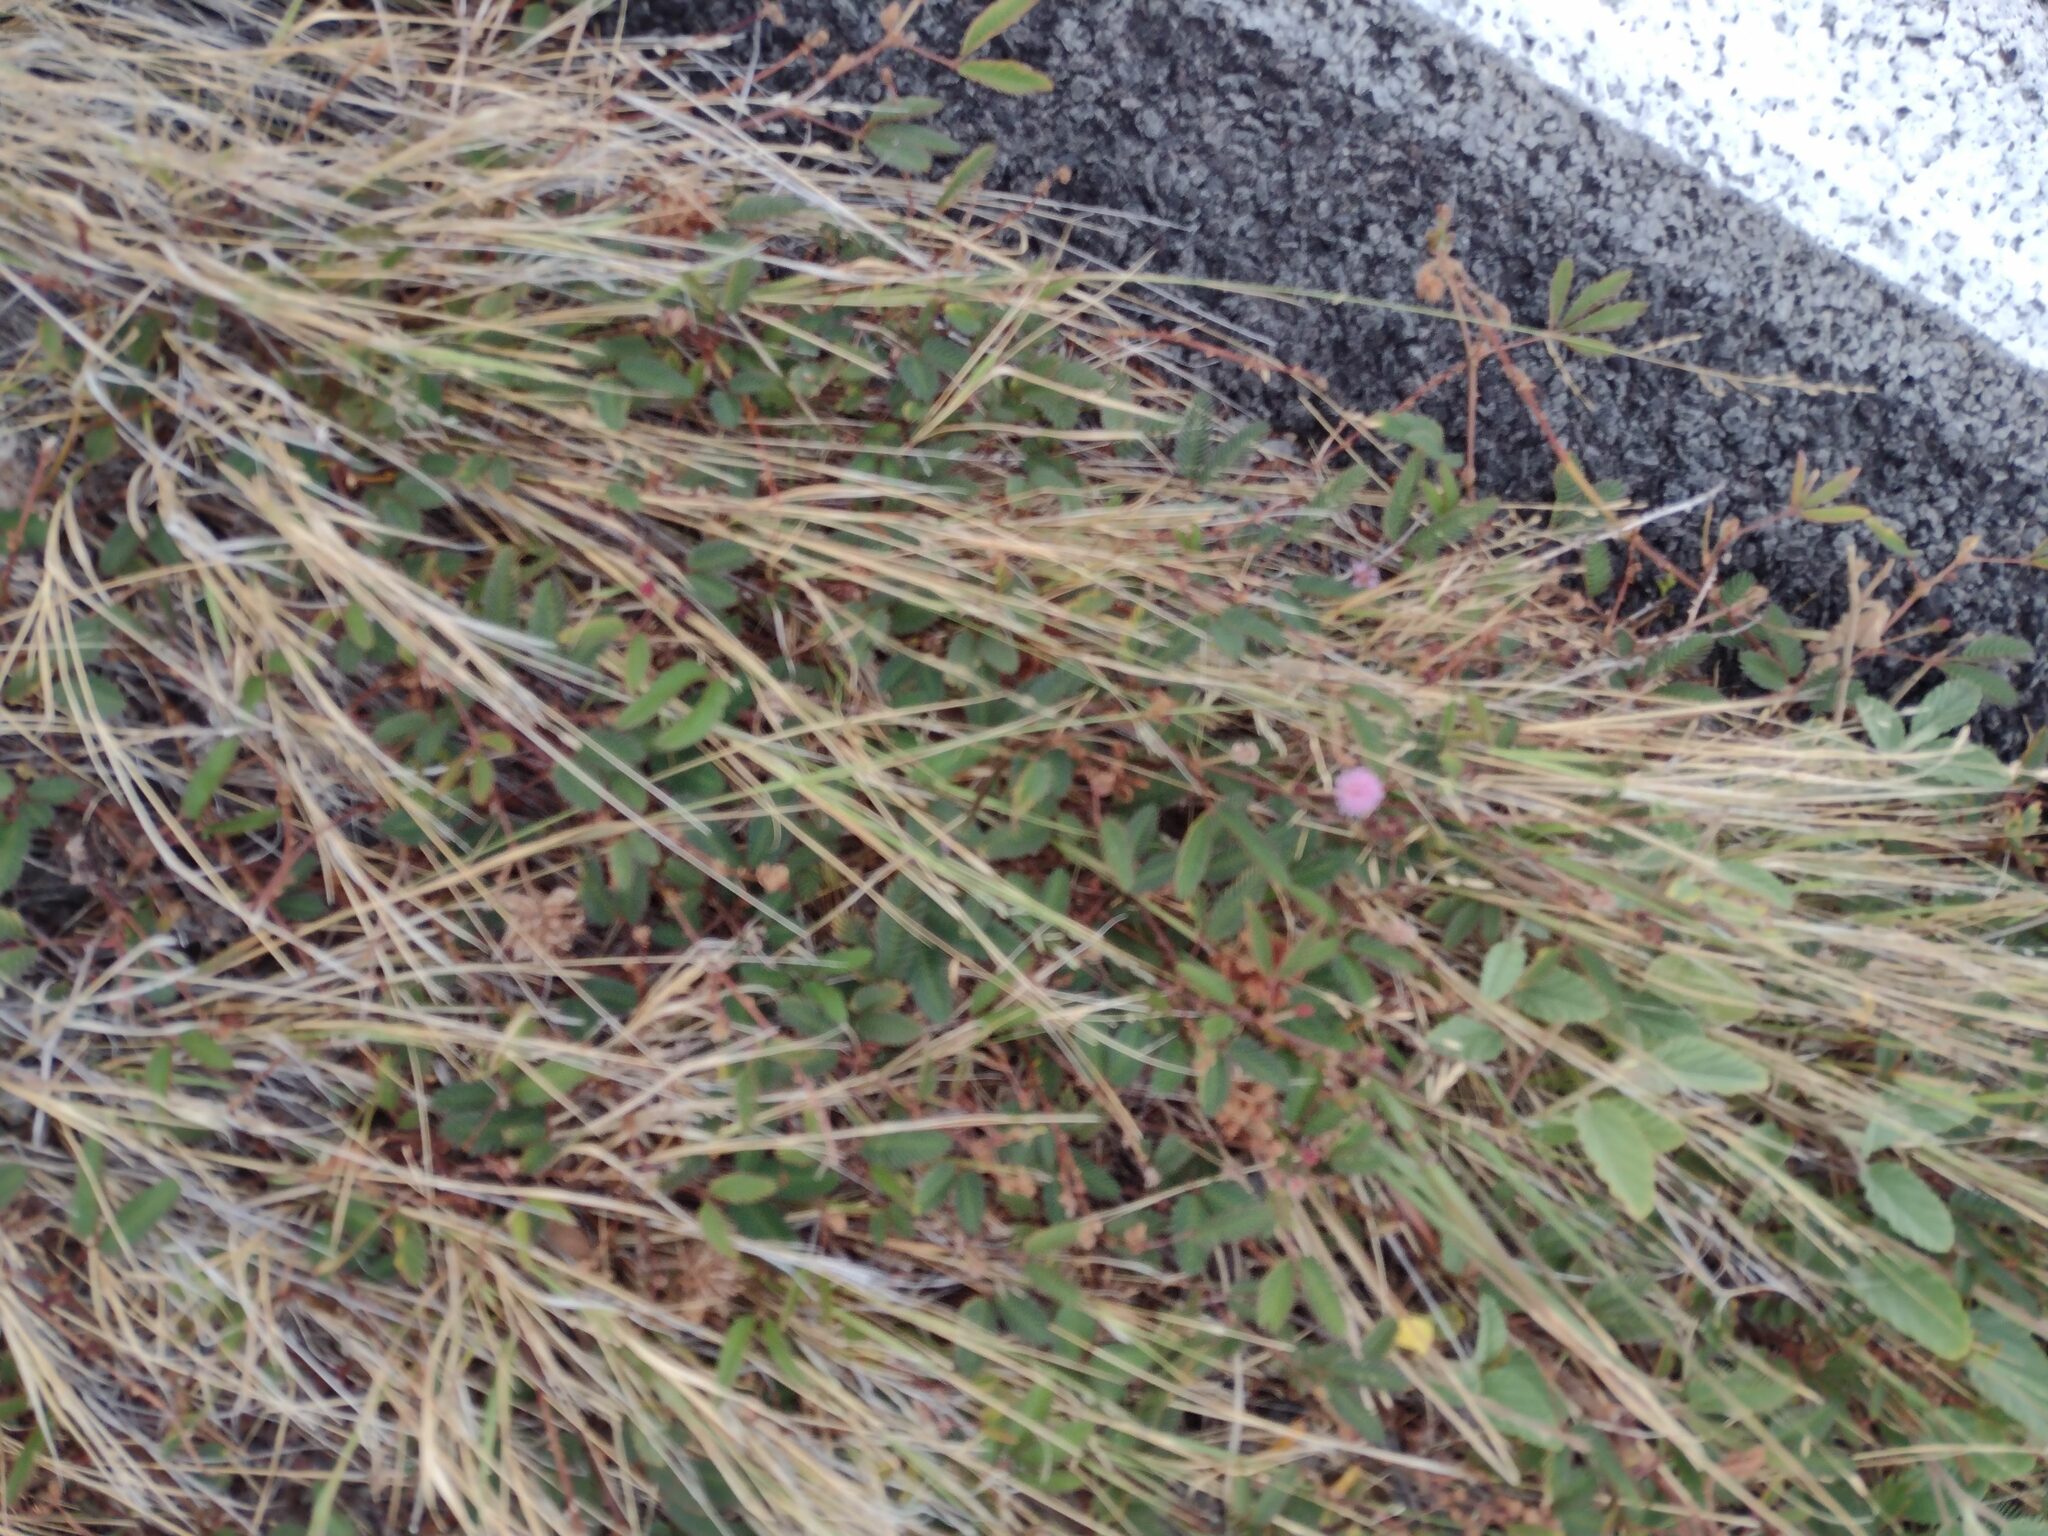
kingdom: Plantae
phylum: Tracheophyta
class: Magnoliopsida
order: Fabales
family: Fabaceae
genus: Mimosa
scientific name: Mimosa pudica
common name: Sensitive plant
